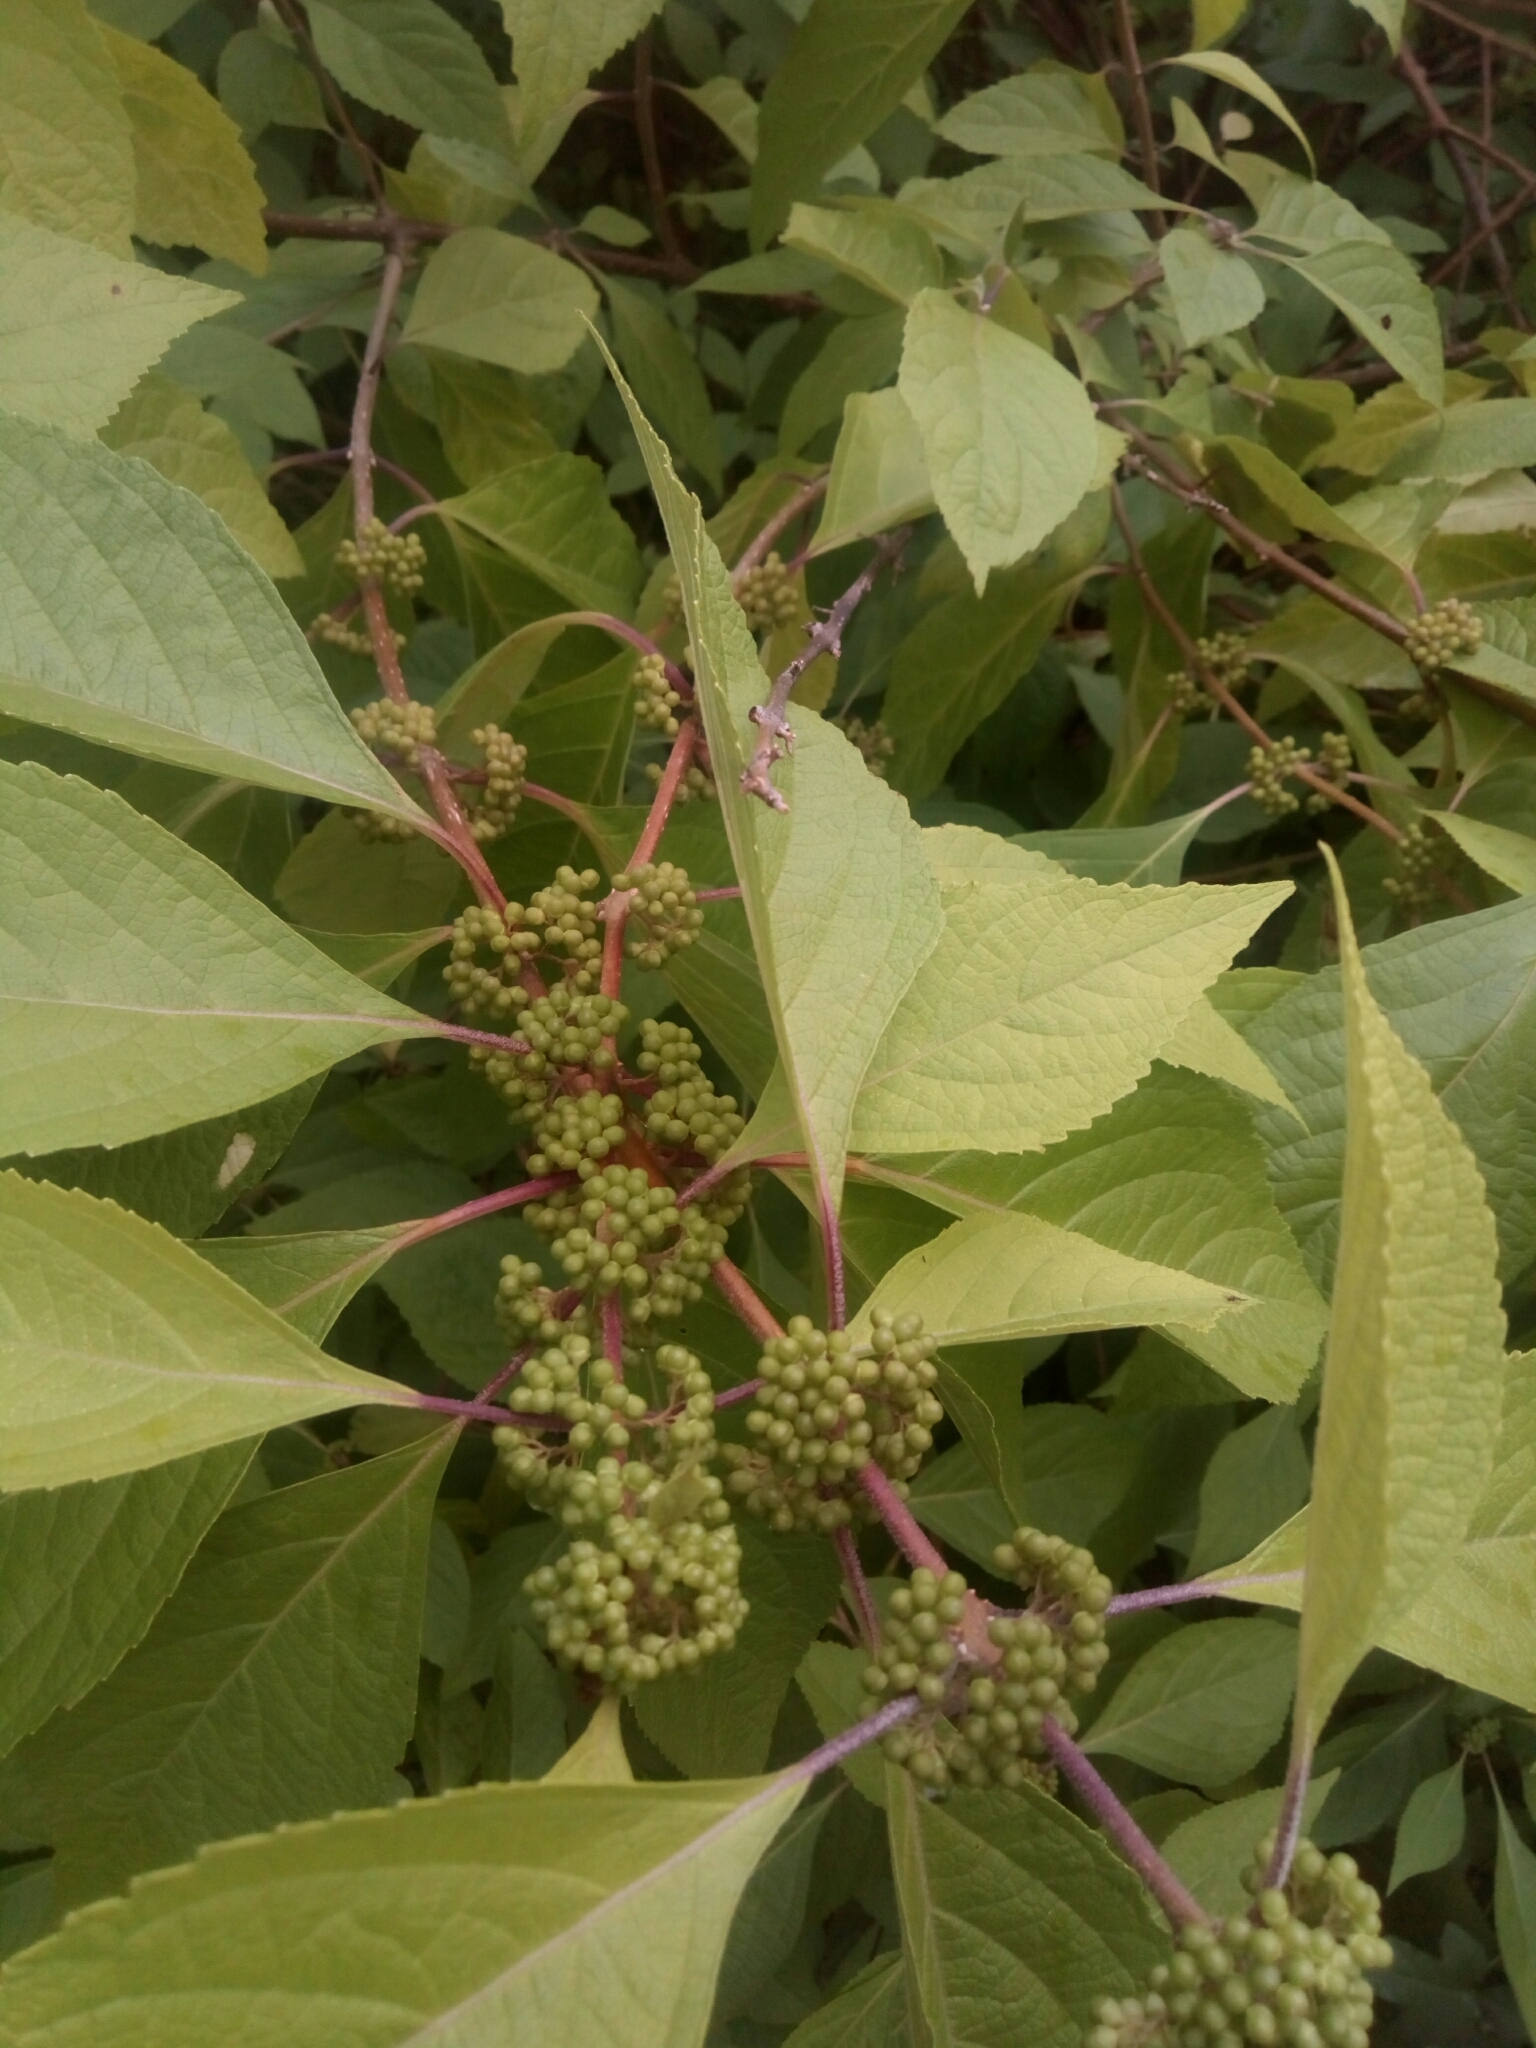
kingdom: Plantae
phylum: Tracheophyta
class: Magnoliopsida
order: Lamiales
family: Lamiaceae
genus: Callicarpa
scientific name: Callicarpa americana
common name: American beautyberry
